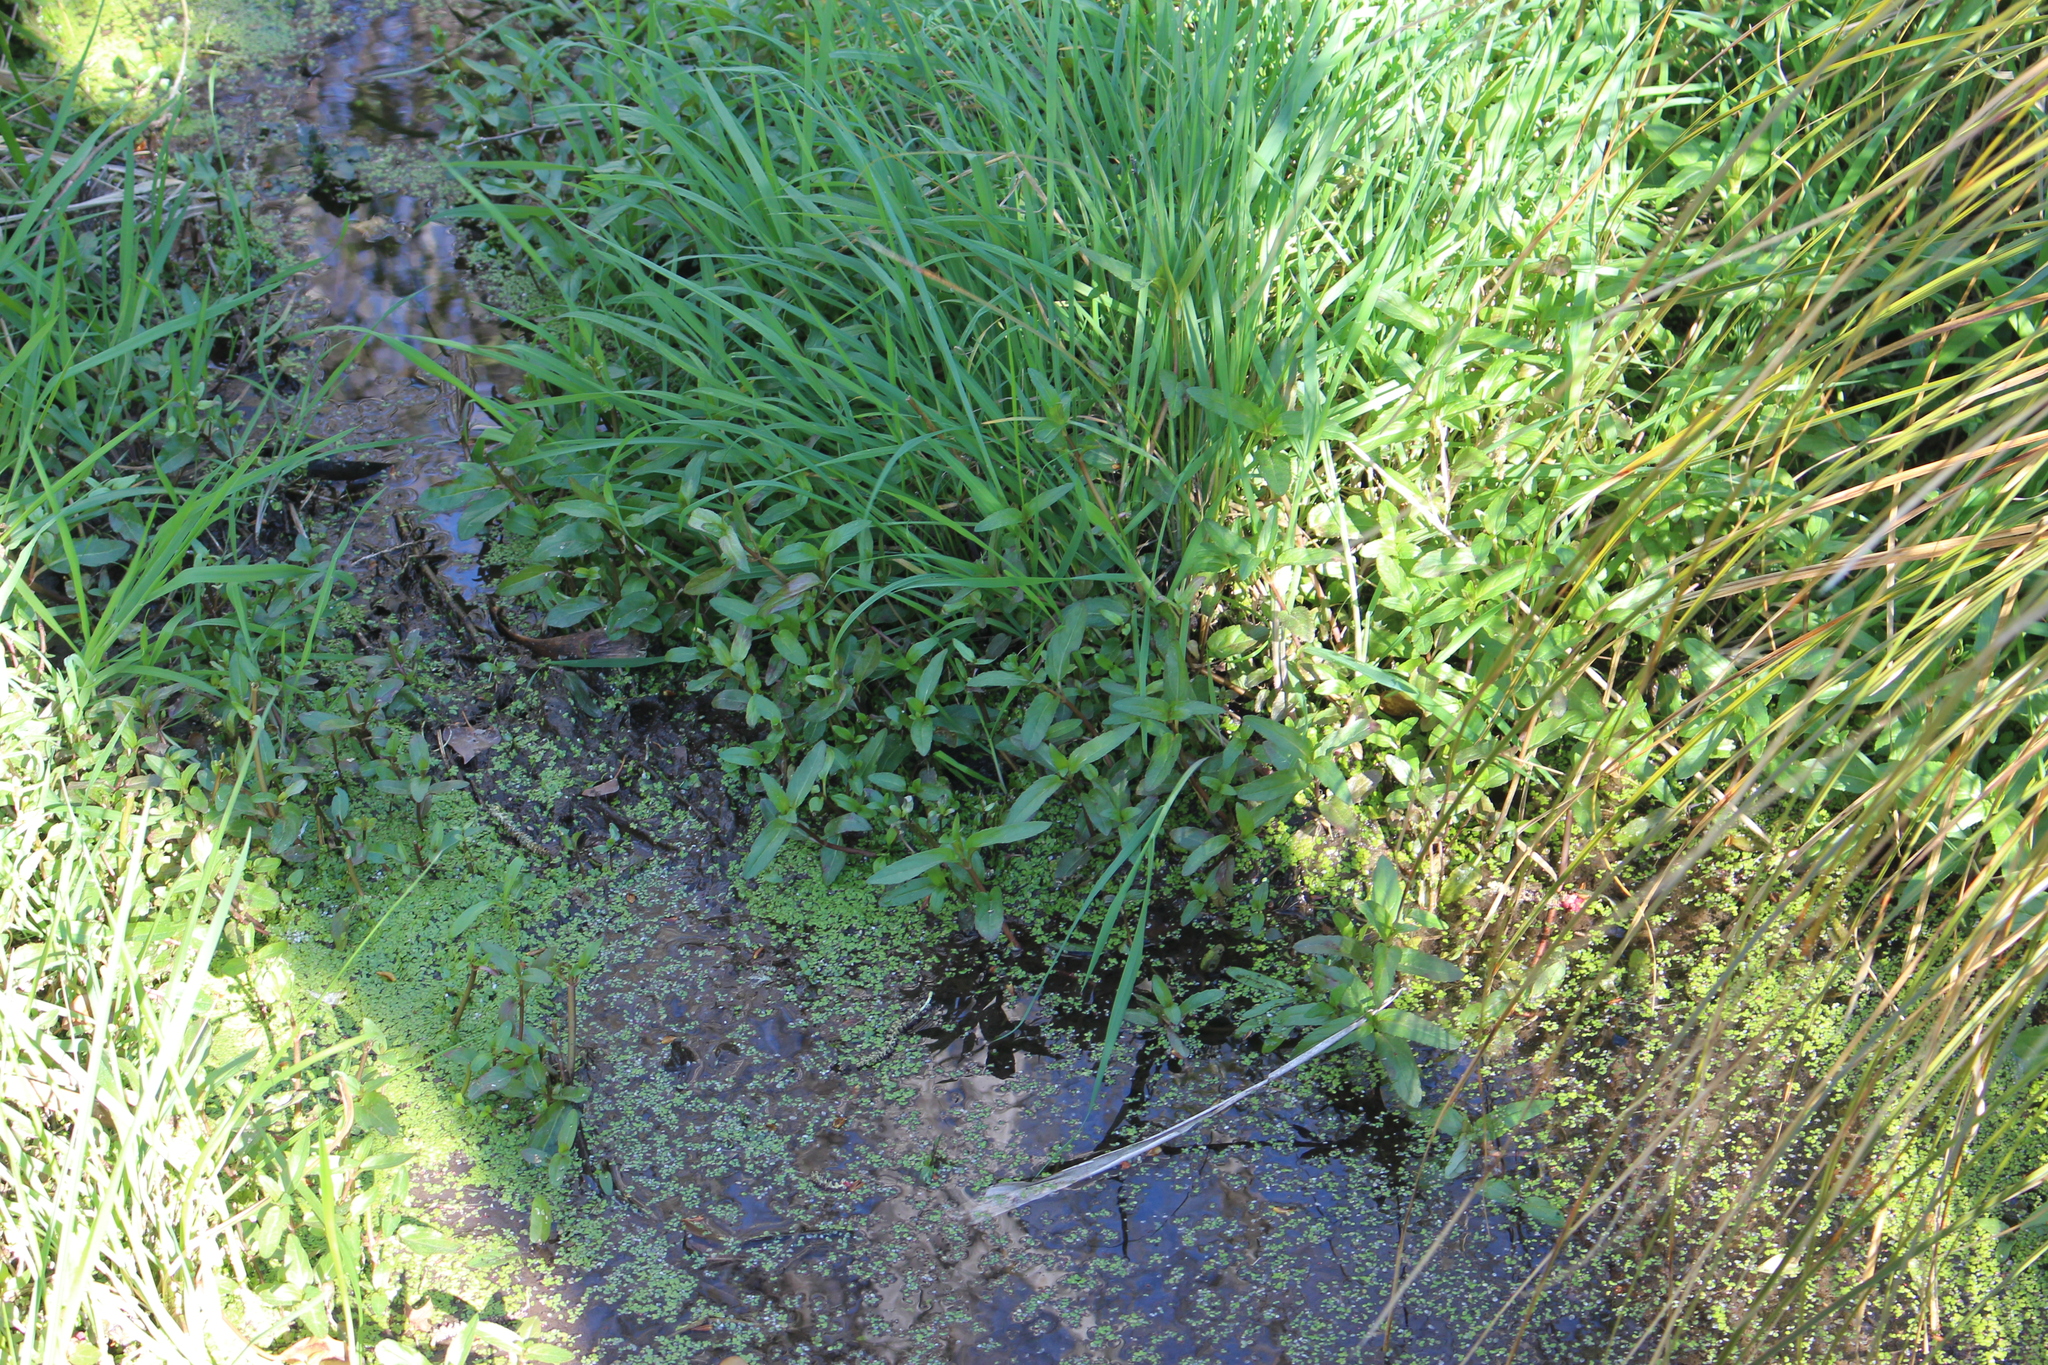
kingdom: Plantae
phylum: Tracheophyta
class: Magnoliopsida
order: Lamiales
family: Plantaginaceae
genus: Veronica
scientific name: Veronica americana
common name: American brooklime
